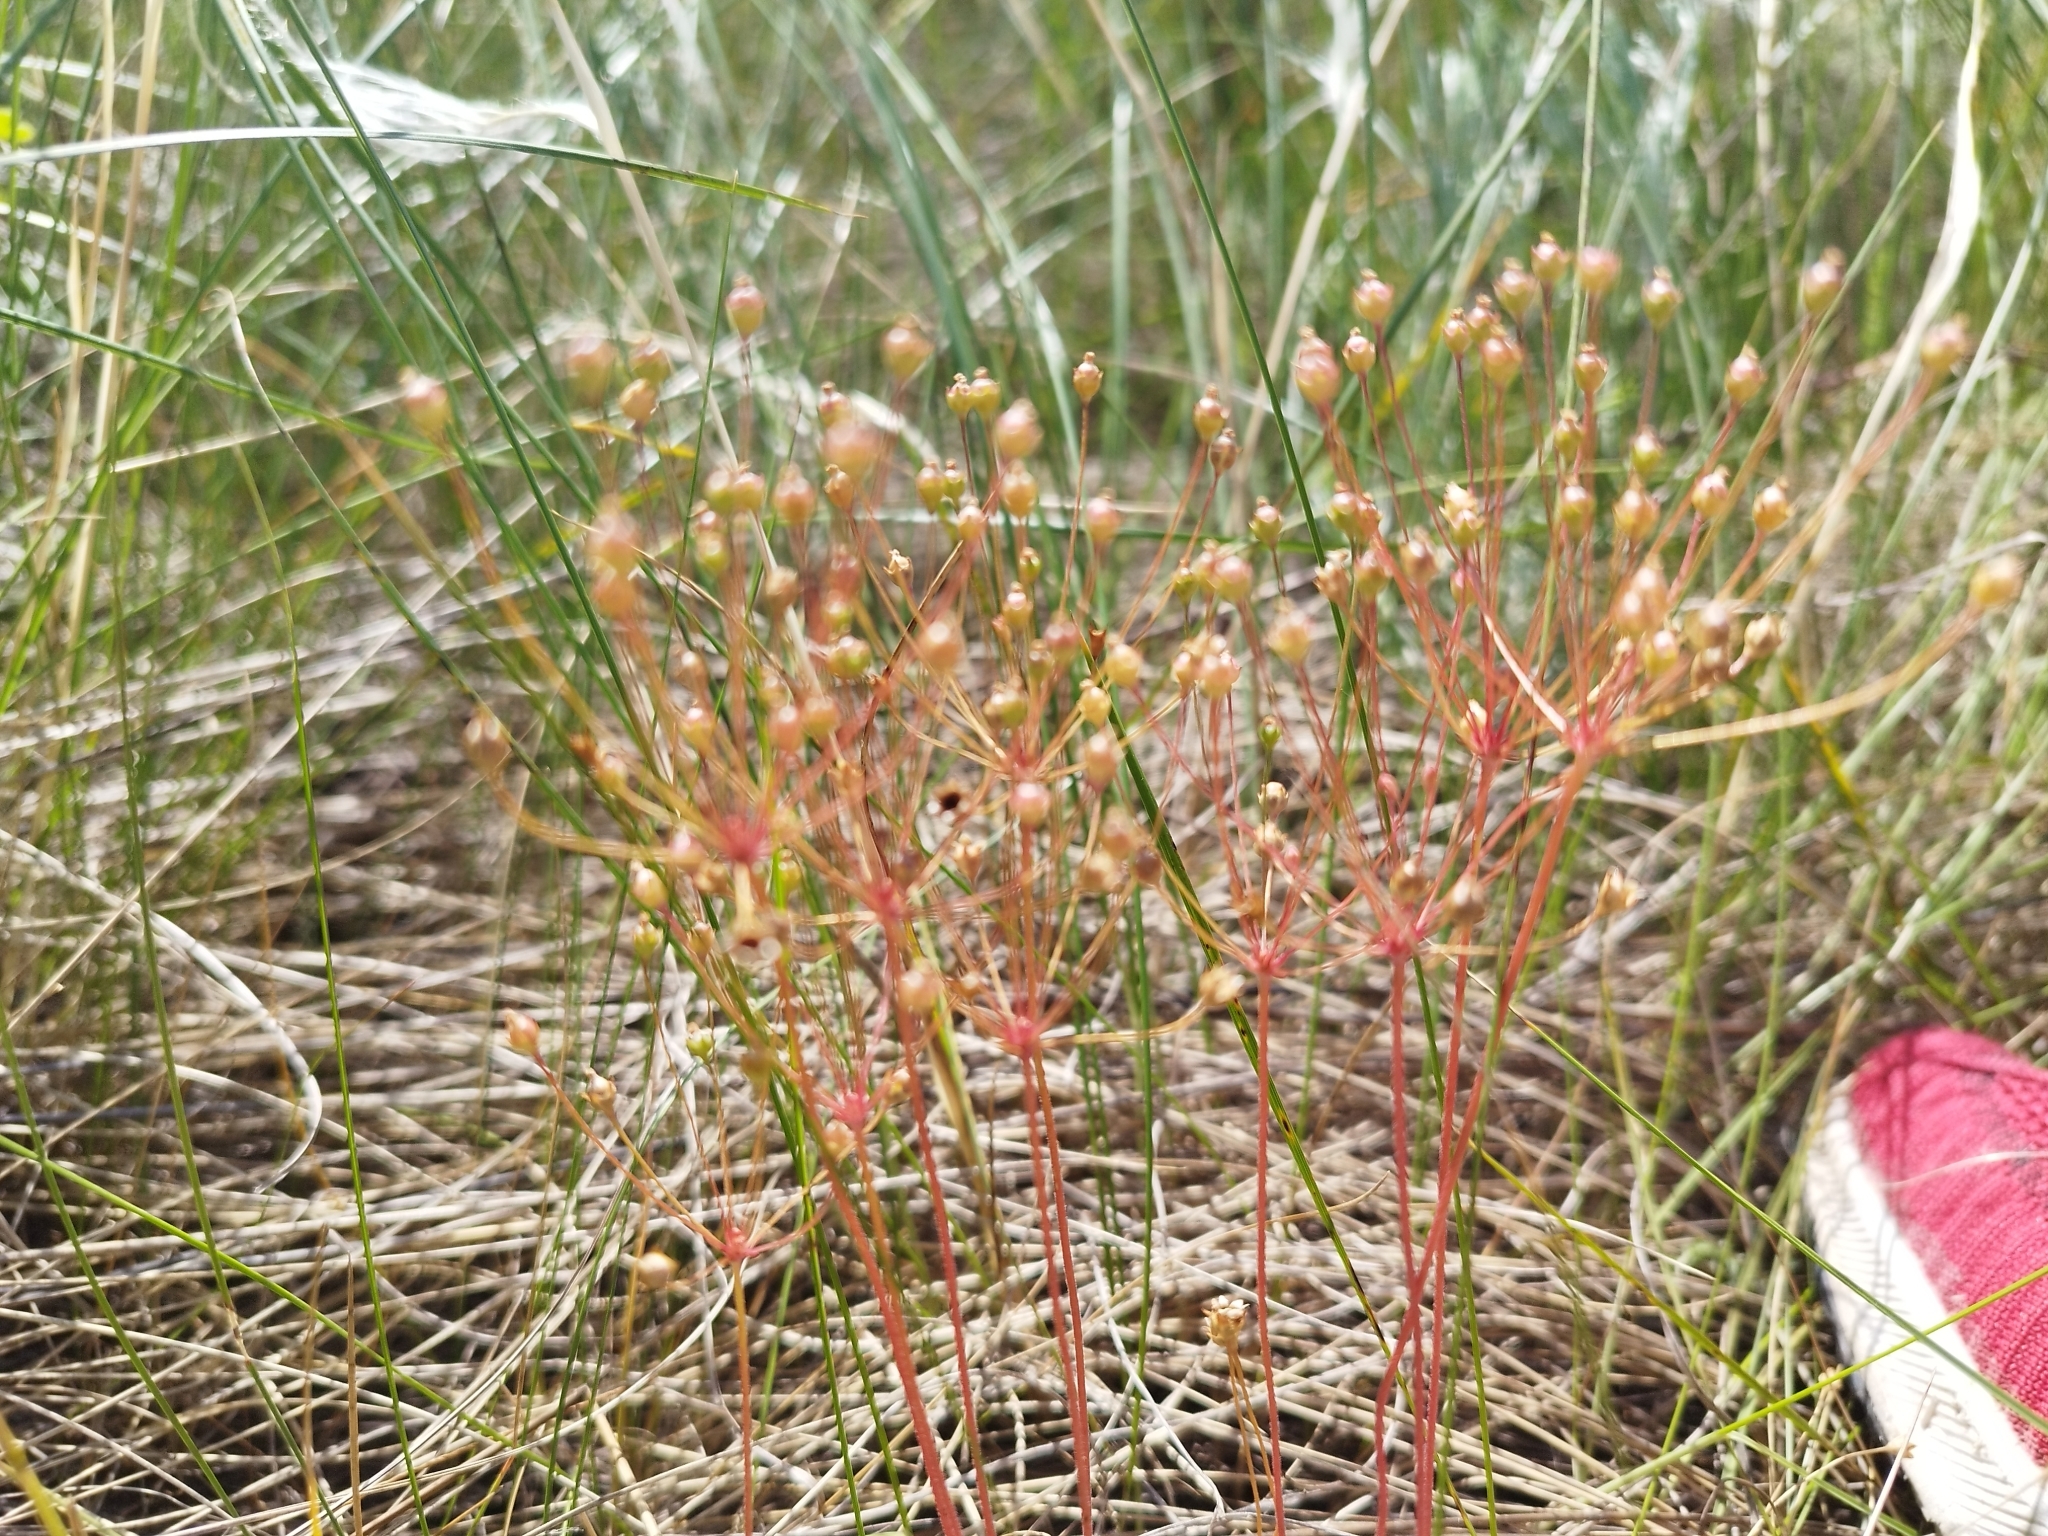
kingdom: Plantae
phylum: Tracheophyta
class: Magnoliopsida
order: Ericales
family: Primulaceae
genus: Androsace
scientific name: Androsace septentrionalis
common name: Hairy northern fairy-candelabra
